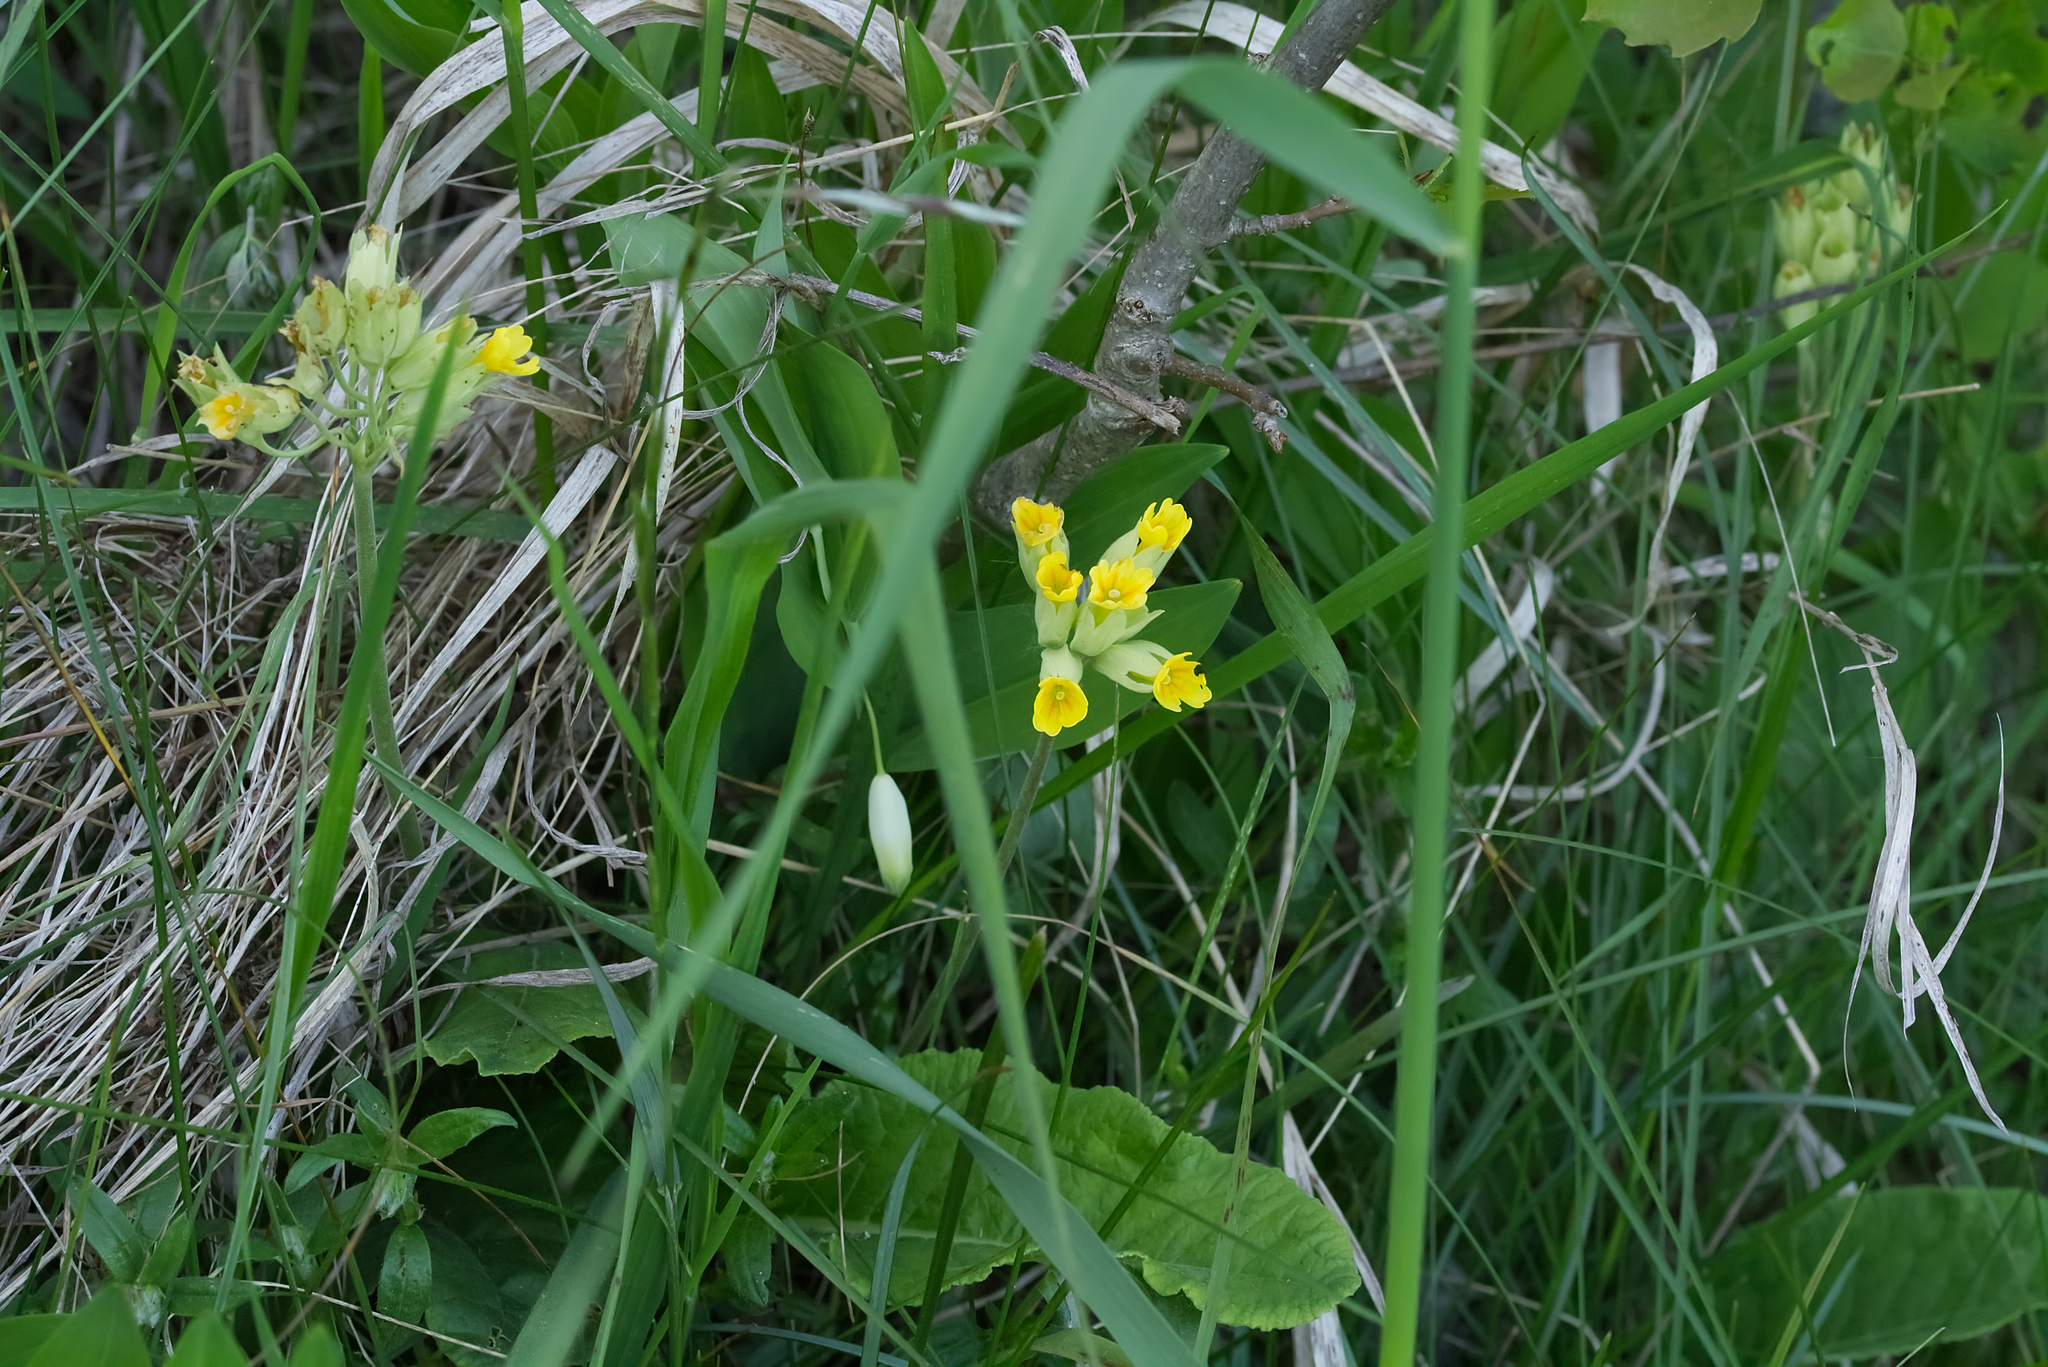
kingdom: Plantae
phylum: Tracheophyta
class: Magnoliopsida
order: Ericales
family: Primulaceae
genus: Primula
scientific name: Primula veris
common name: Cowslip
